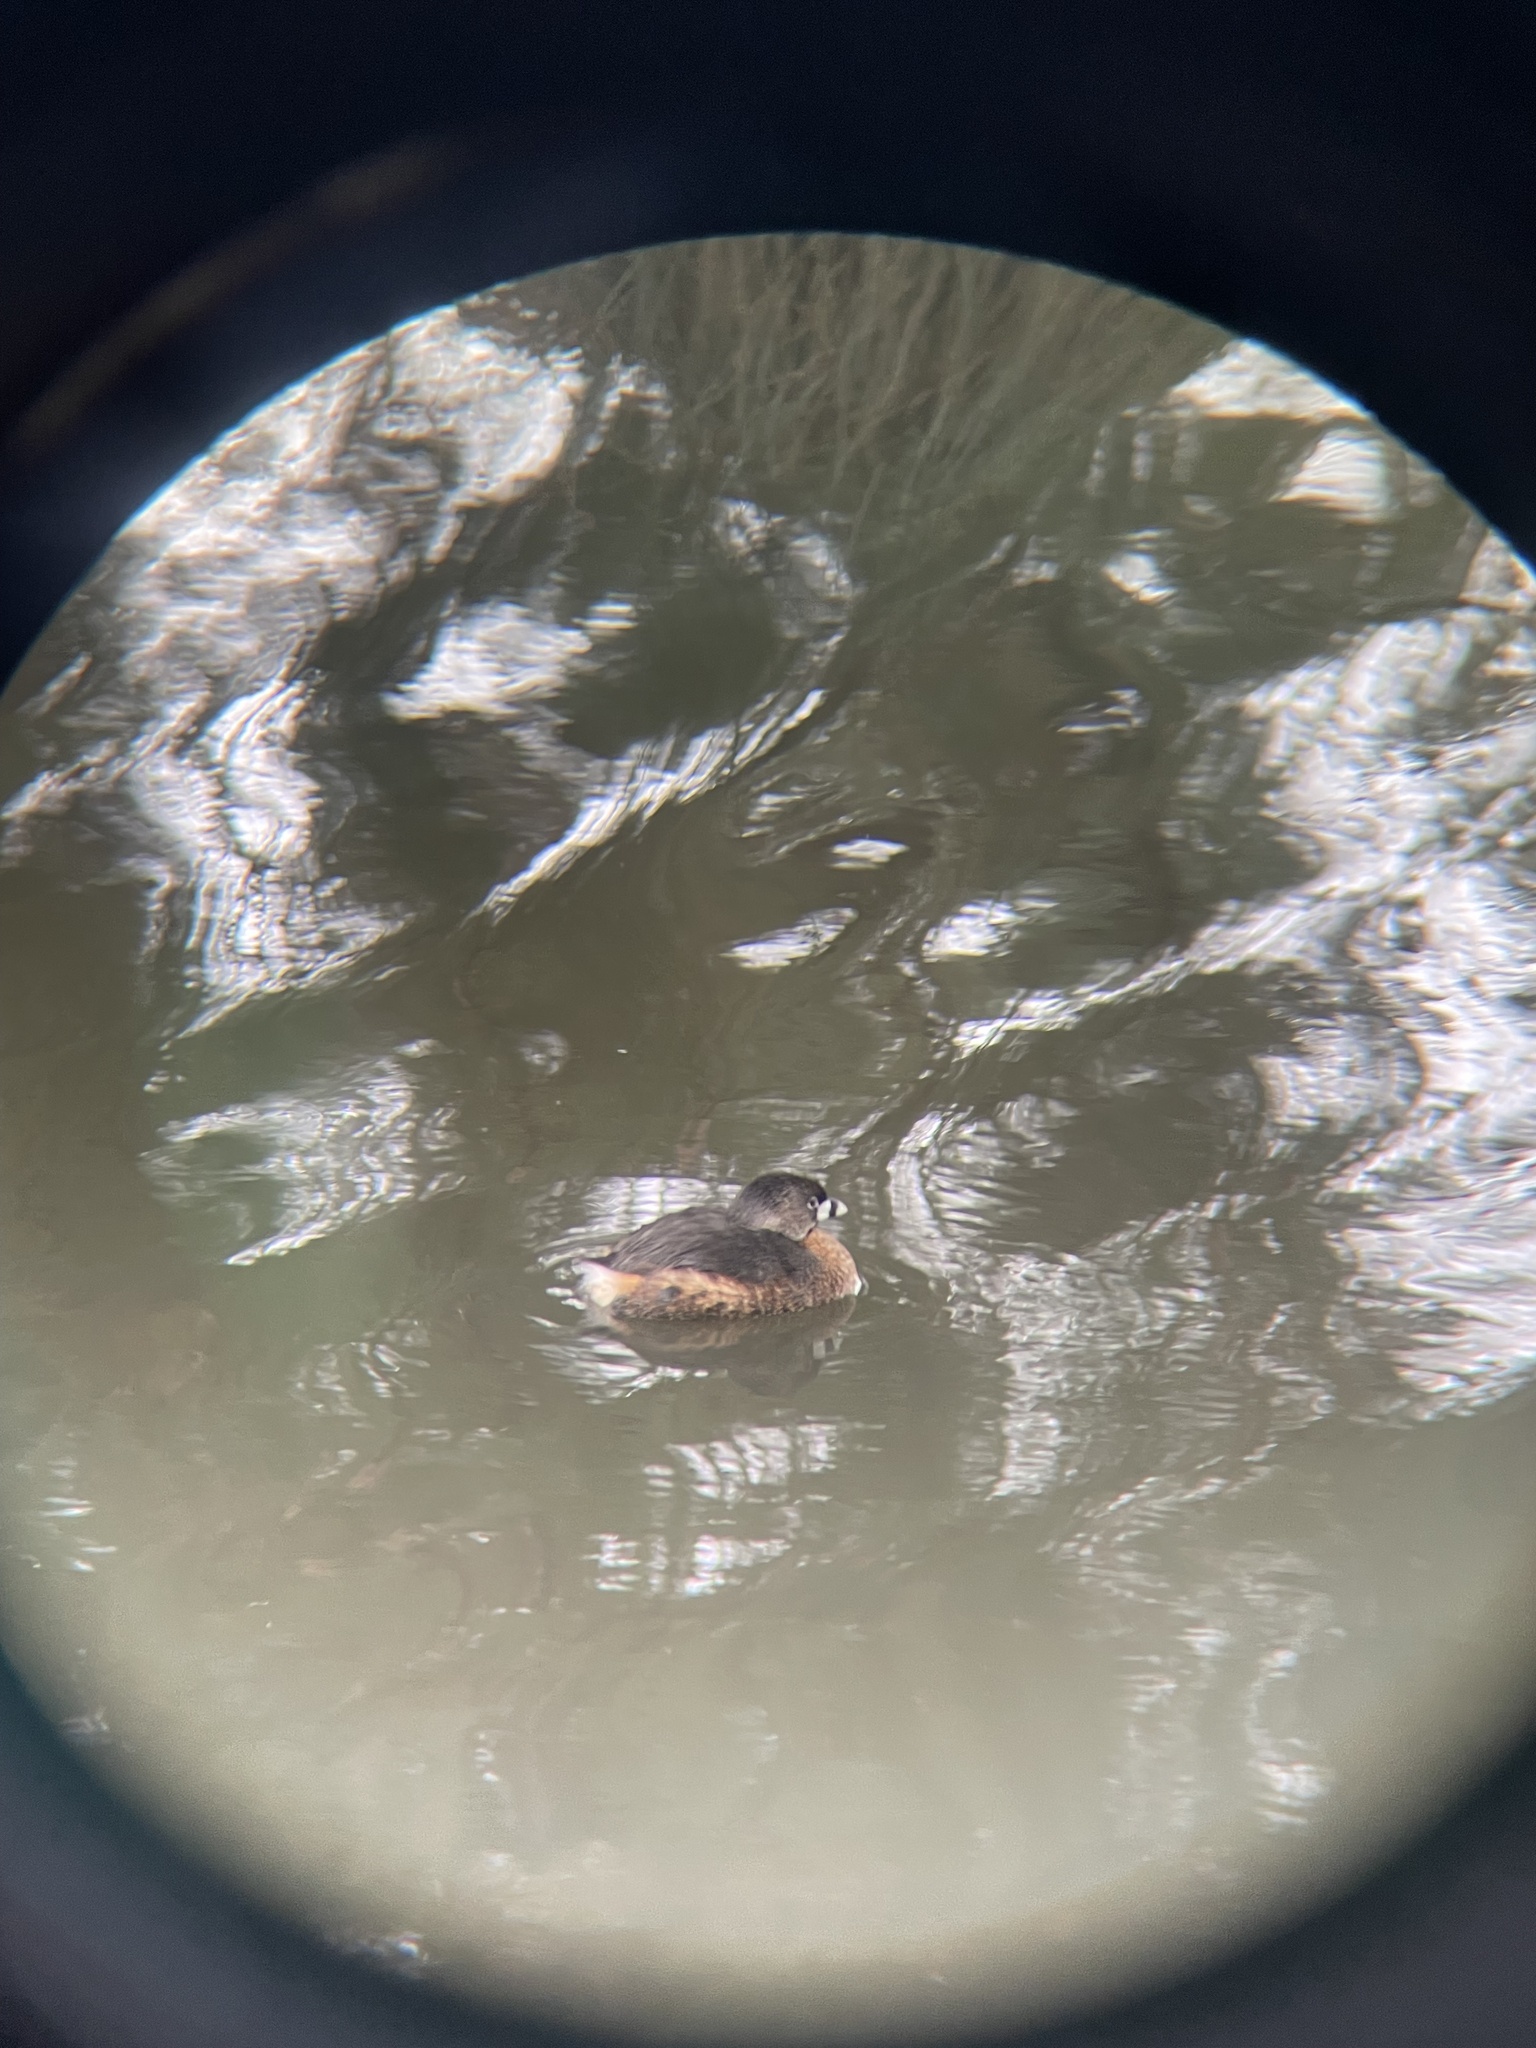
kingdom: Animalia
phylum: Chordata
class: Aves
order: Podicipediformes
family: Podicipedidae
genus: Podilymbus
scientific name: Podilymbus podiceps
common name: Pied-billed grebe
